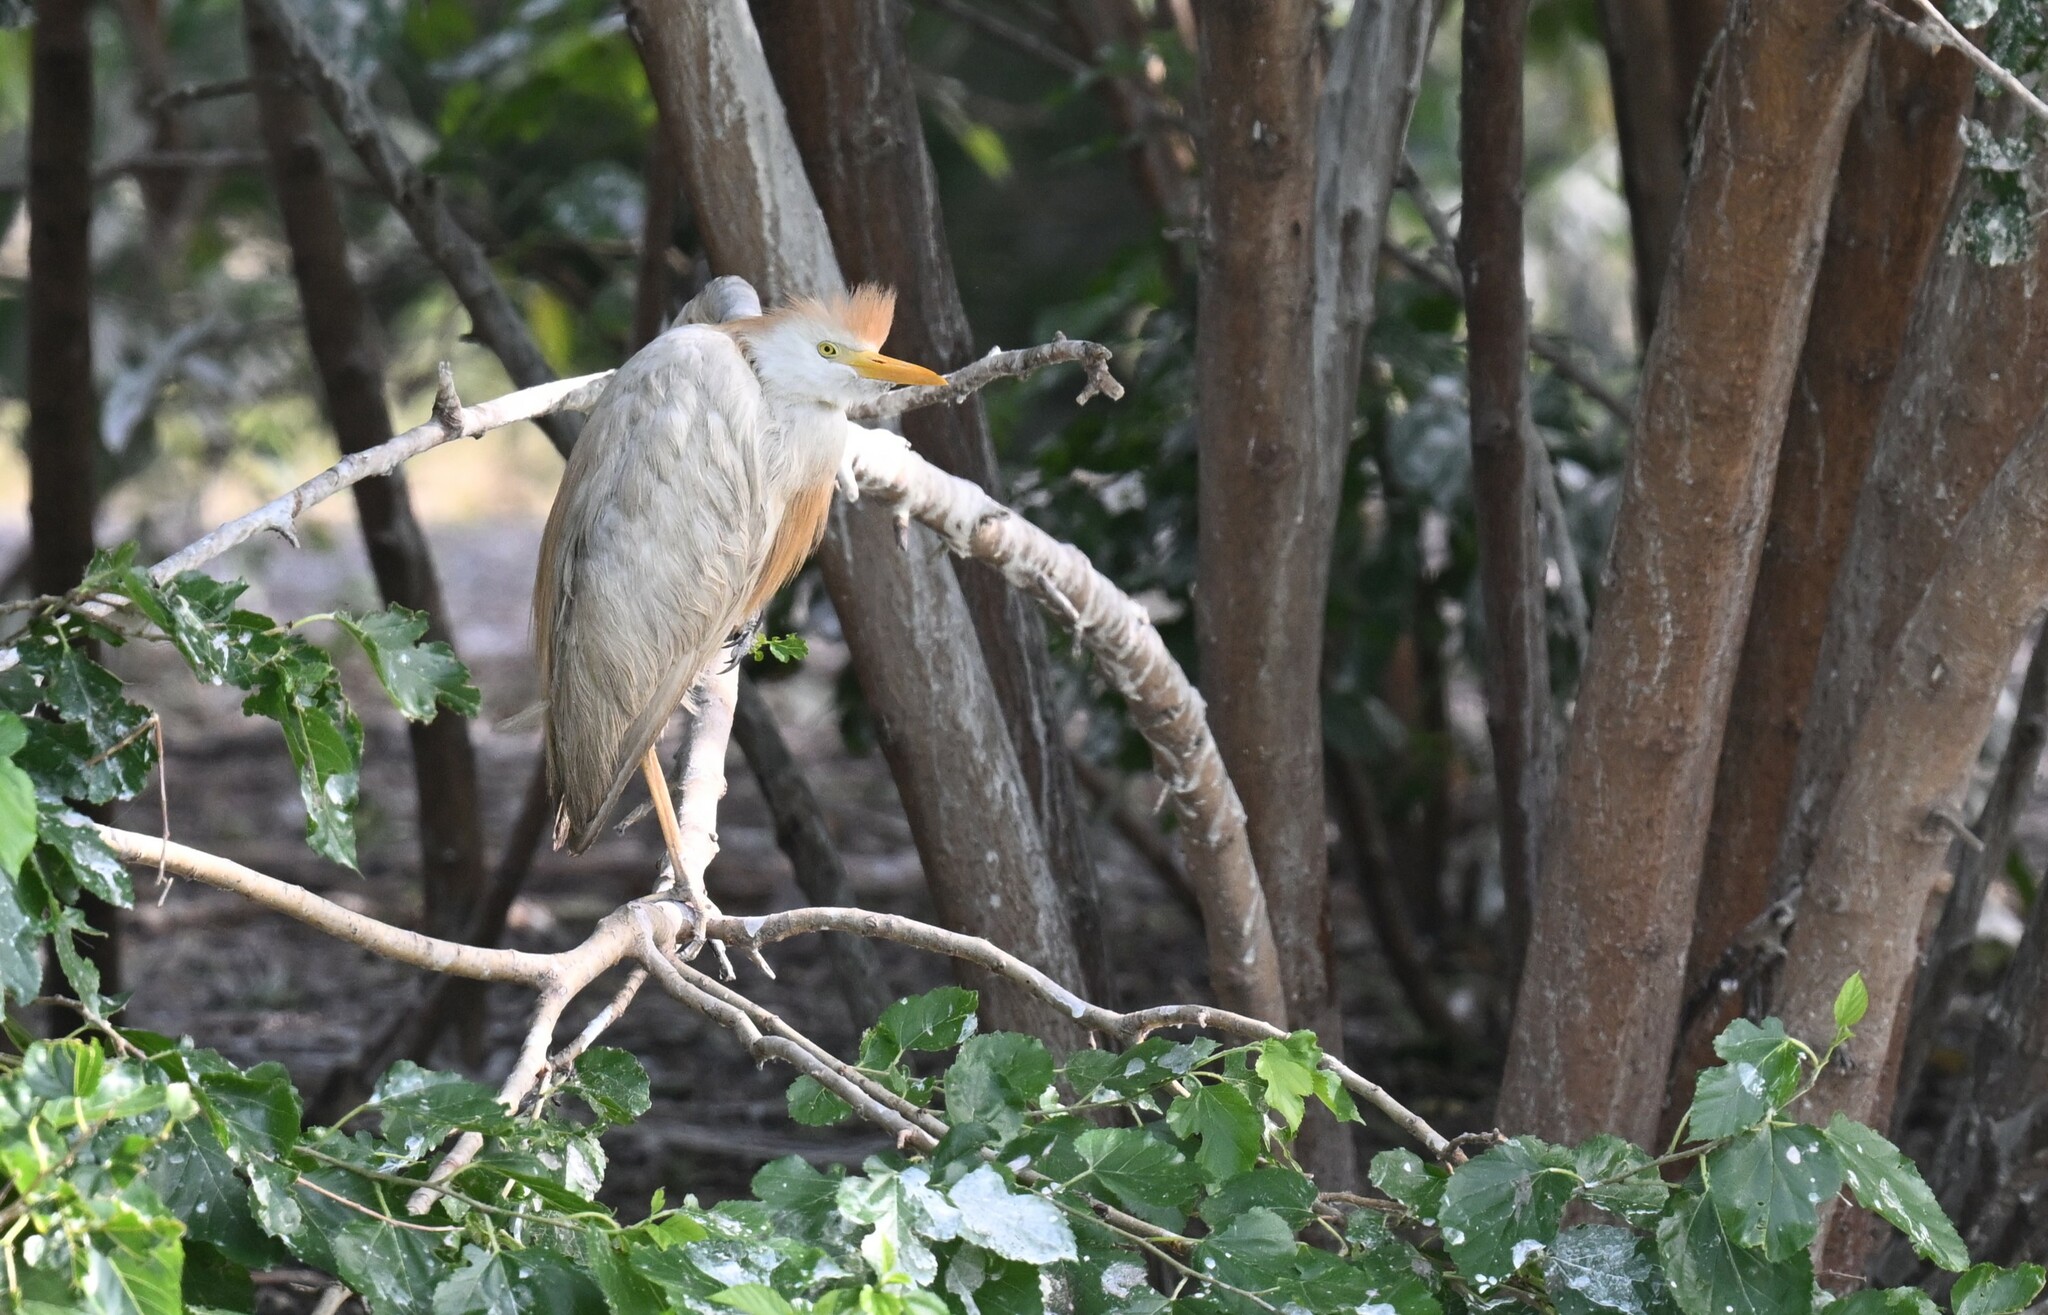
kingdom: Animalia
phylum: Chordata
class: Aves
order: Pelecaniformes
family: Ardeidae
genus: Bubulcus
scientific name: Bubulcus ibis
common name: Cattle egret
